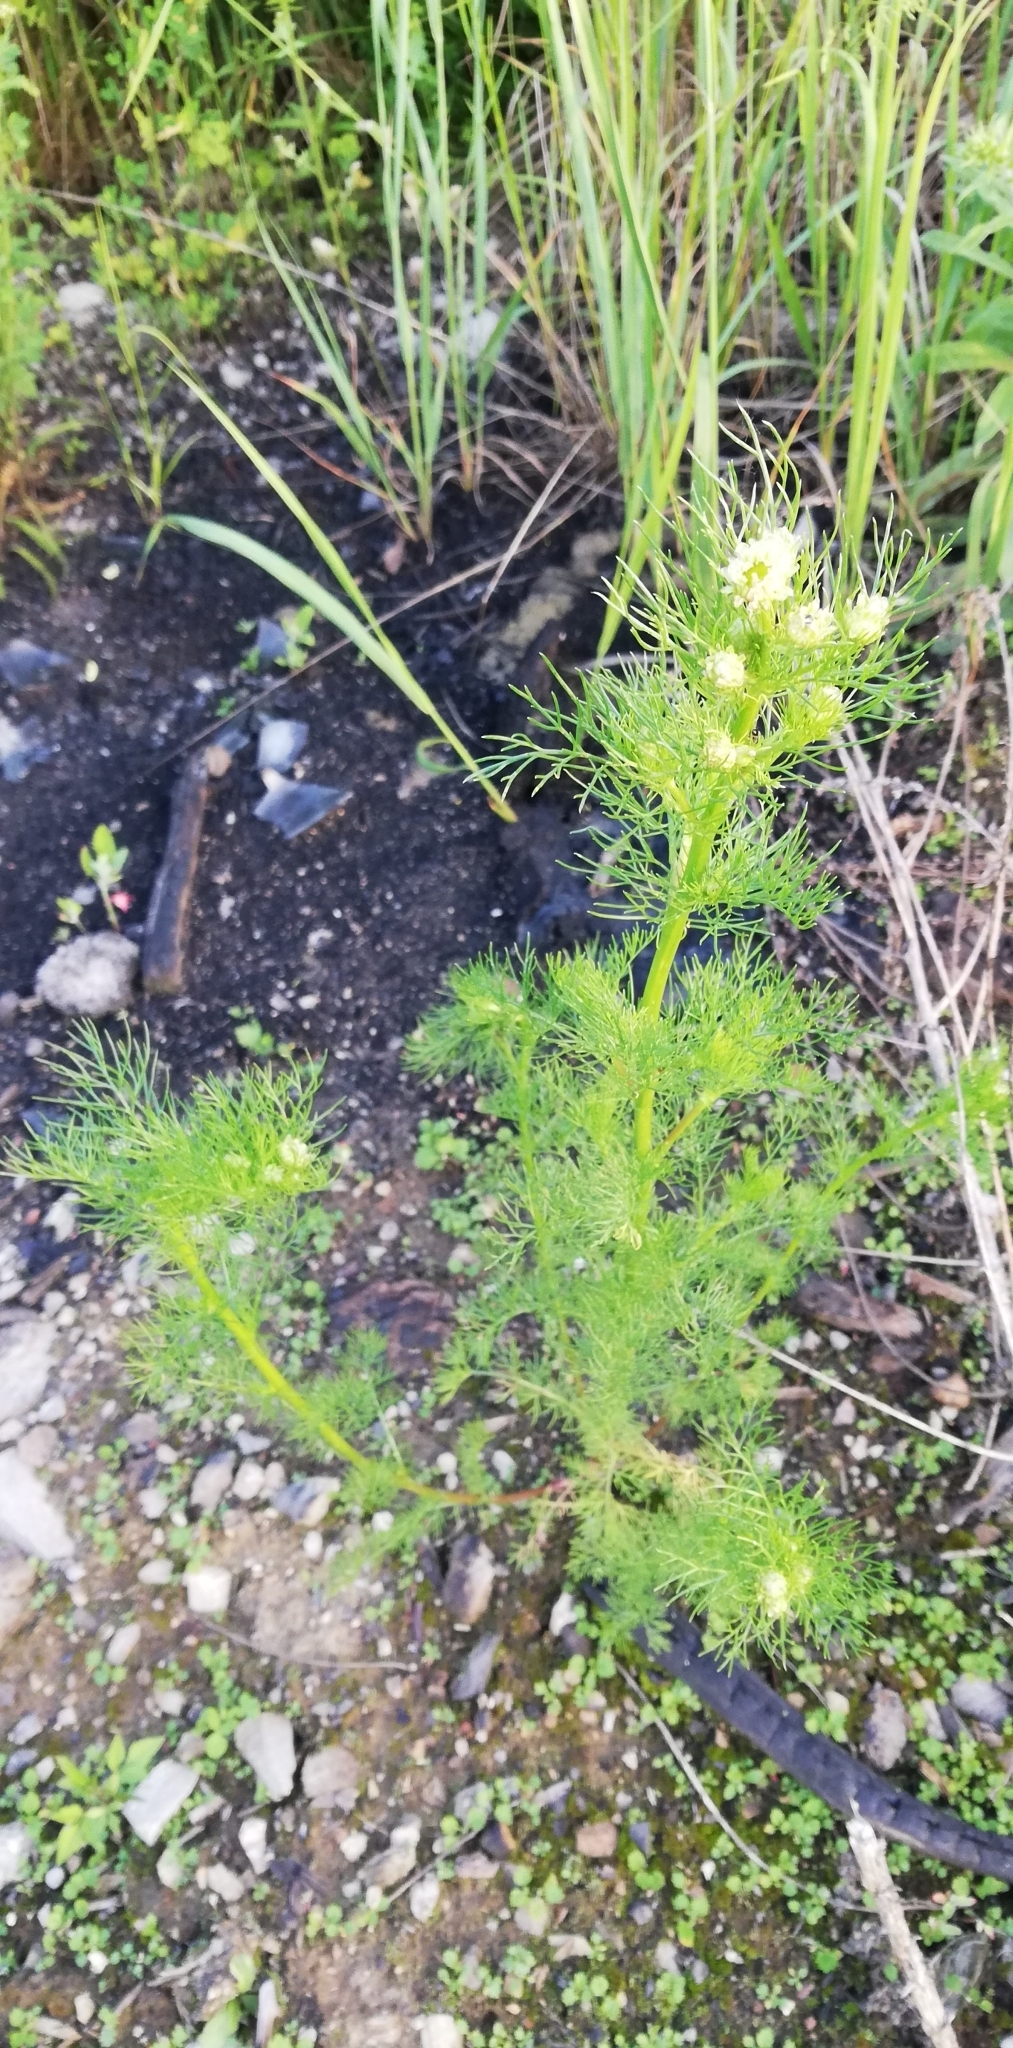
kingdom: Plantae
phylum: Tracheophyta
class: Magnoliopsida
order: Asterales
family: Asteraceae
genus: Tripleurospermum
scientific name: Tripleurospermum inodorum
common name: Scentless mayweed
